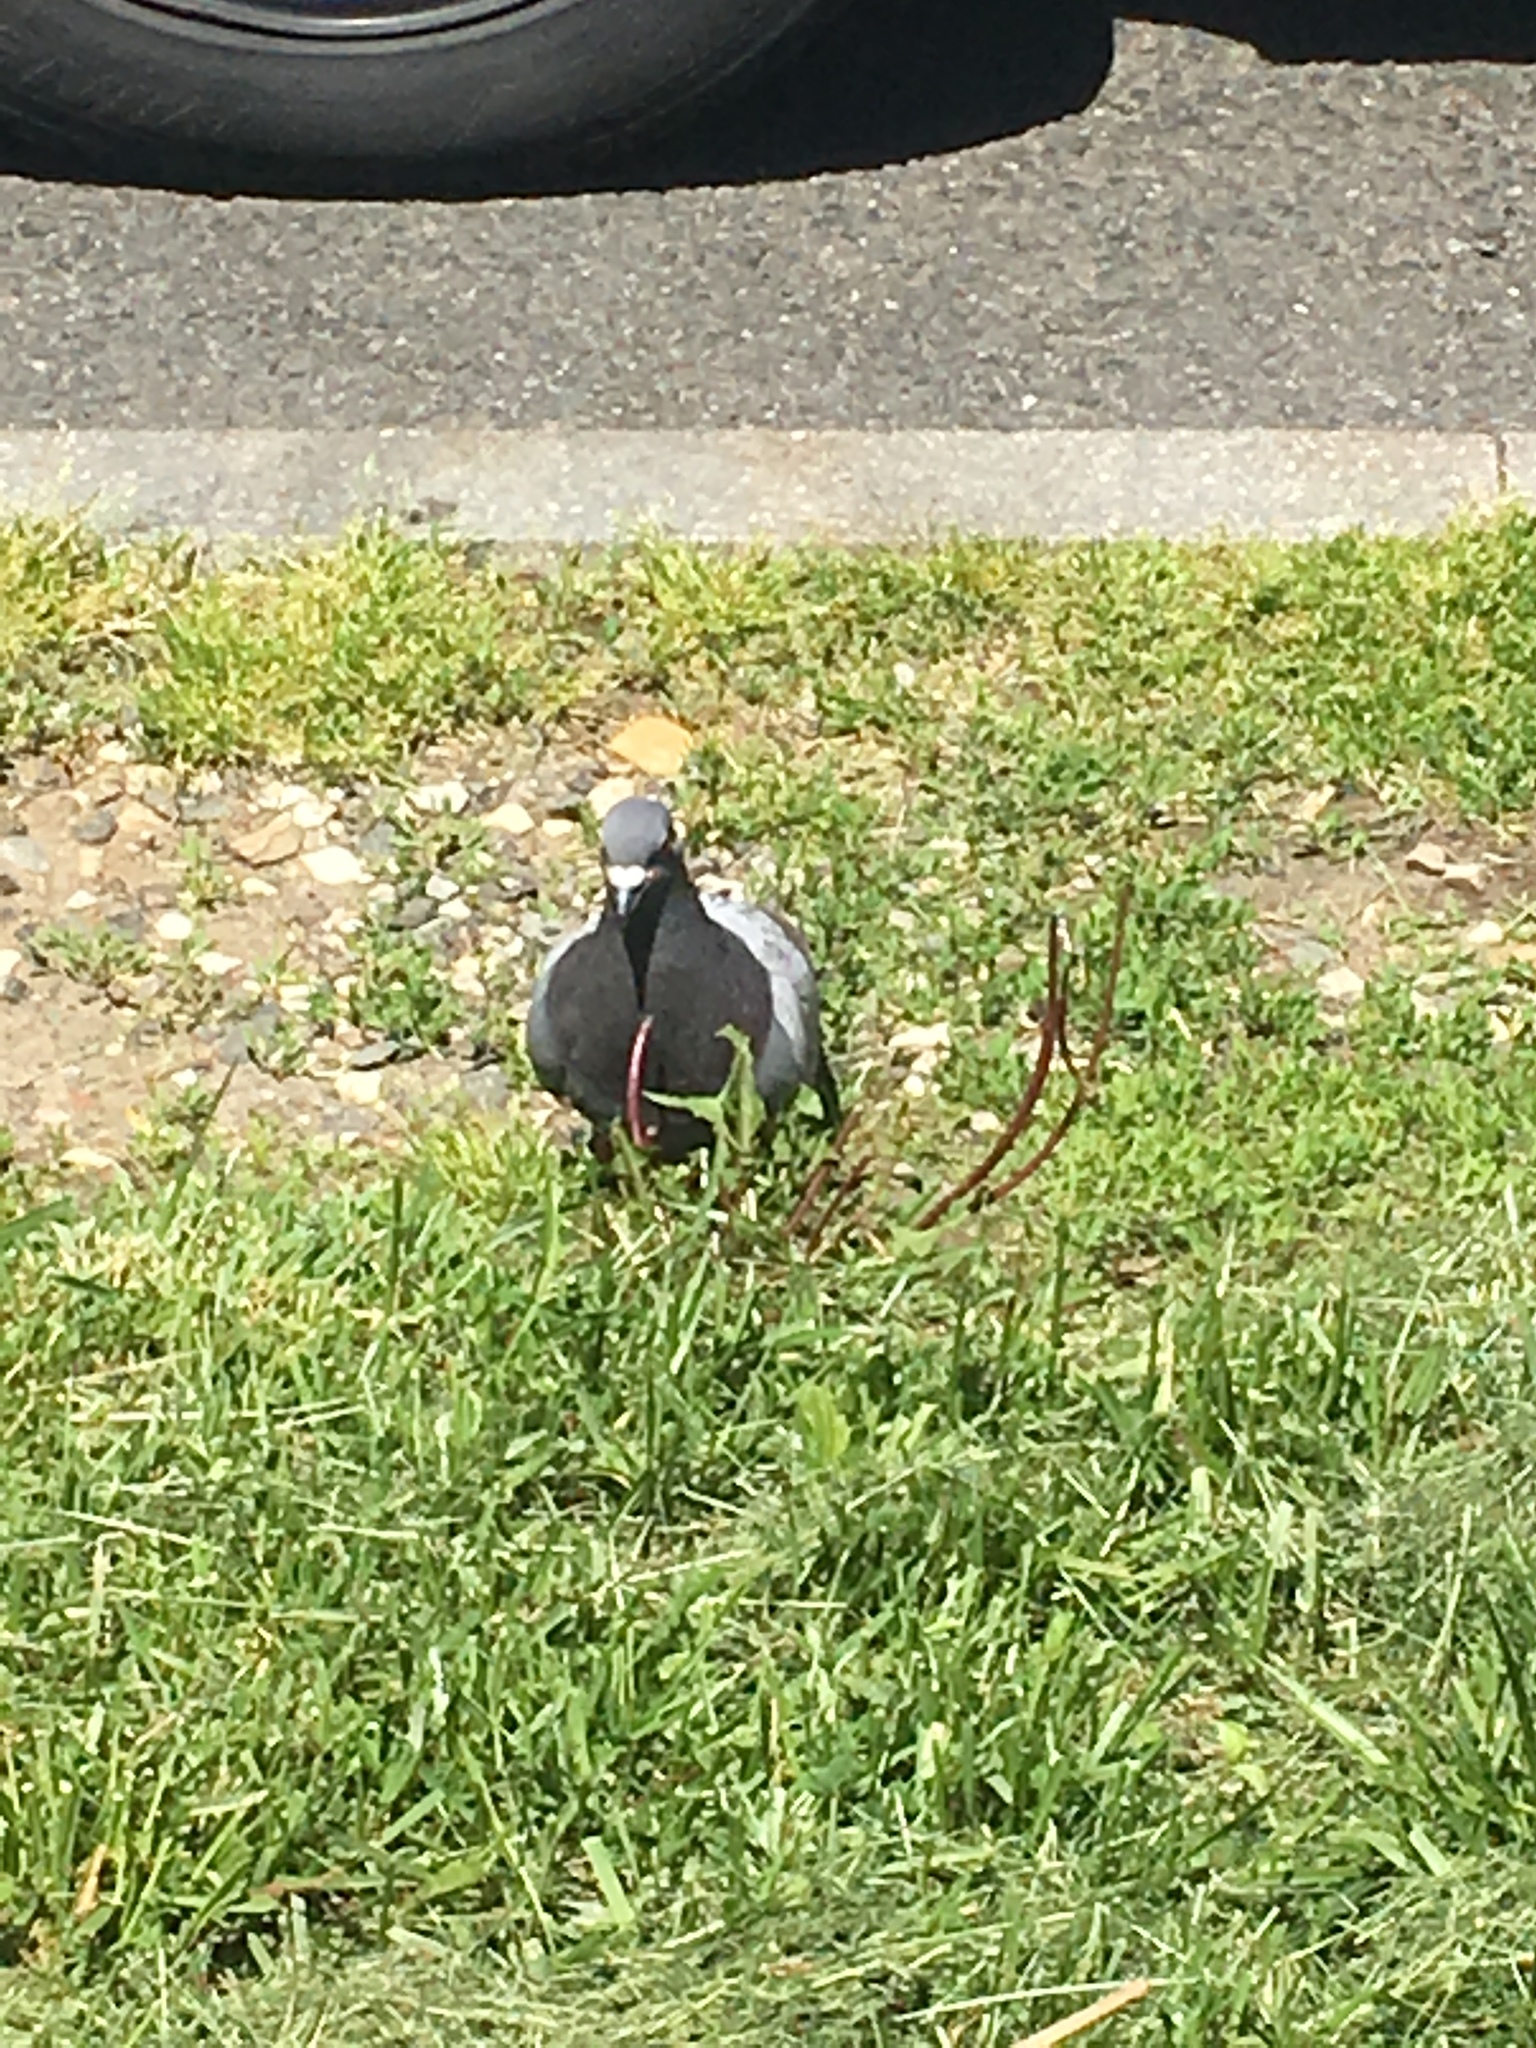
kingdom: Animalia
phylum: Chordata
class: Aves
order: Columbiformes
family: Columbidae
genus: Columba
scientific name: Columba livia
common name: Rock pigeon
